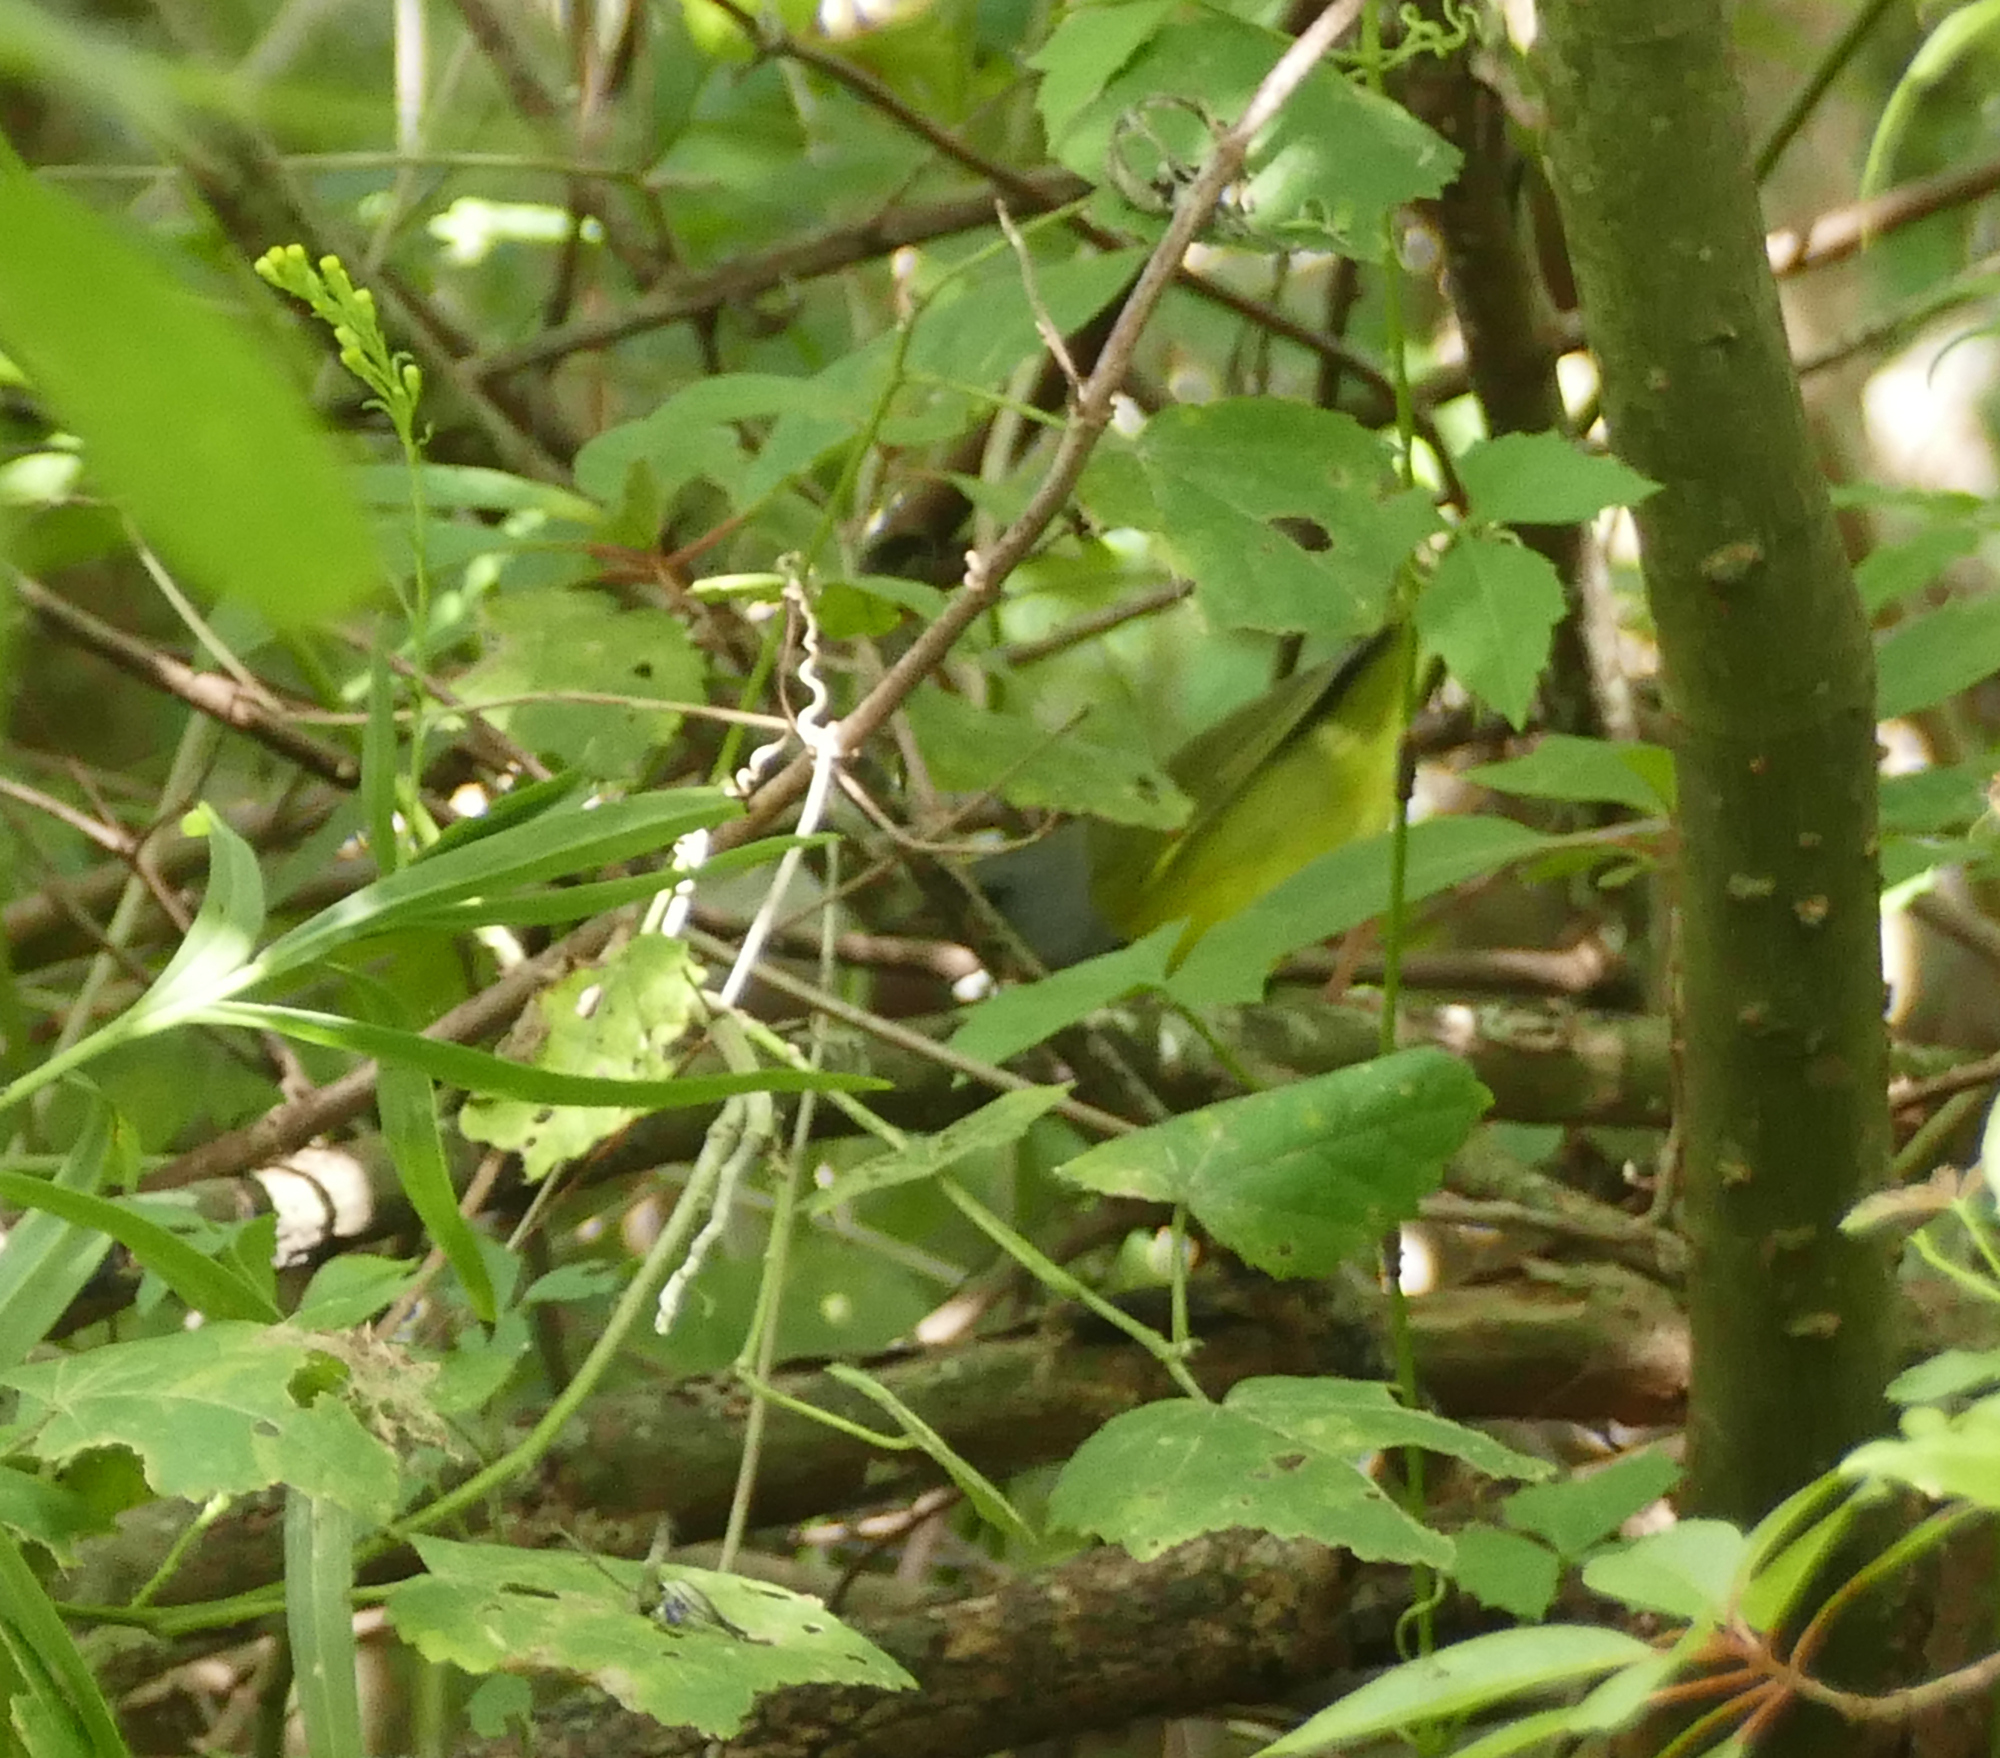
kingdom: Animalia
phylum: Chordata
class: Aves
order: Passeriformes
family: Parulidae
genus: Geothlypis
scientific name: Geothlypis philadelphia
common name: Mourning warbler
